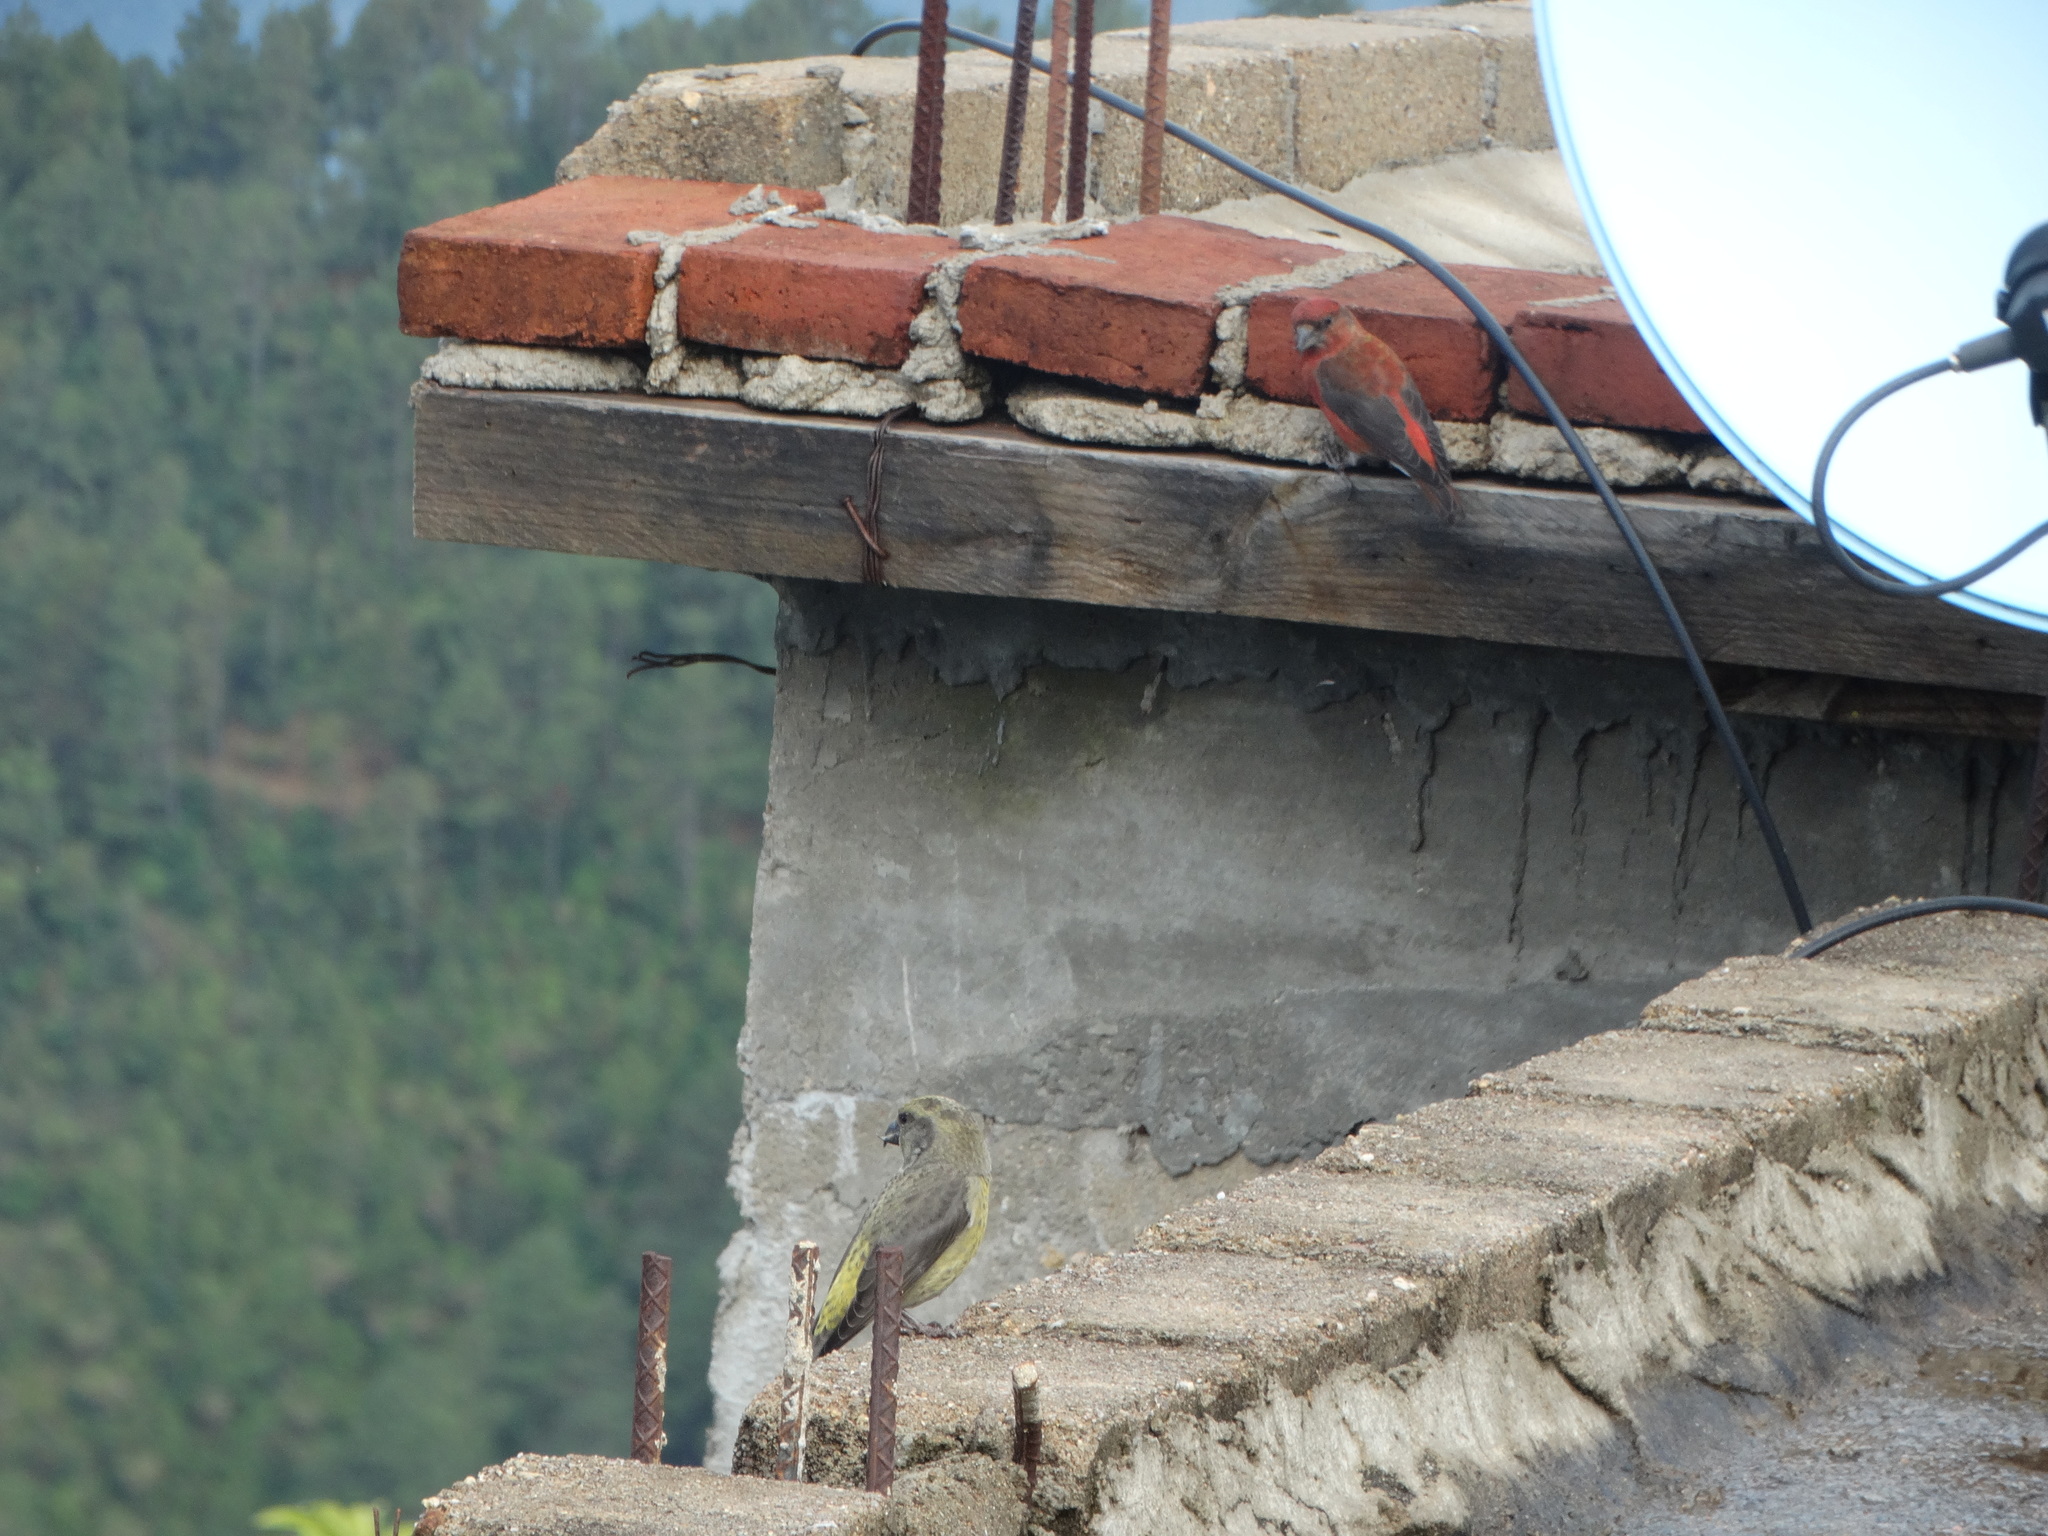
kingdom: Animalia
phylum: Chordata
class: Aves
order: Passeriformes
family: Fringillidae
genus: Loxia
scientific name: Loxia curvirostra
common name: Red crossbill
